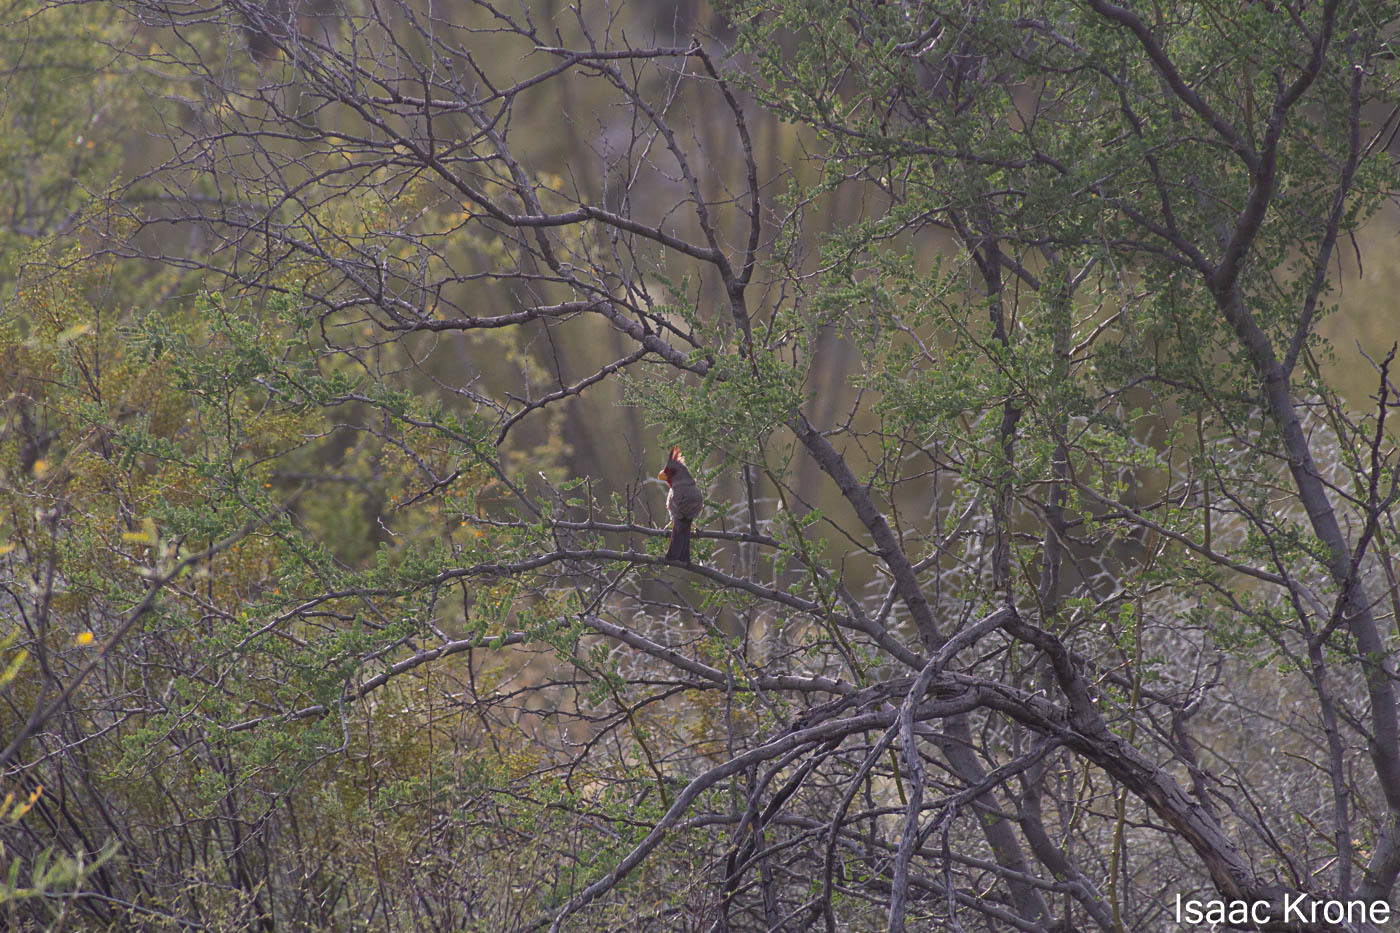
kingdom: Animalia
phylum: Chordata
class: Aves
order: Passeriformes
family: Cardinalidae
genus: Cardinalis
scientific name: Cardinalis sinuatus
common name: Pyrrhuloxia
